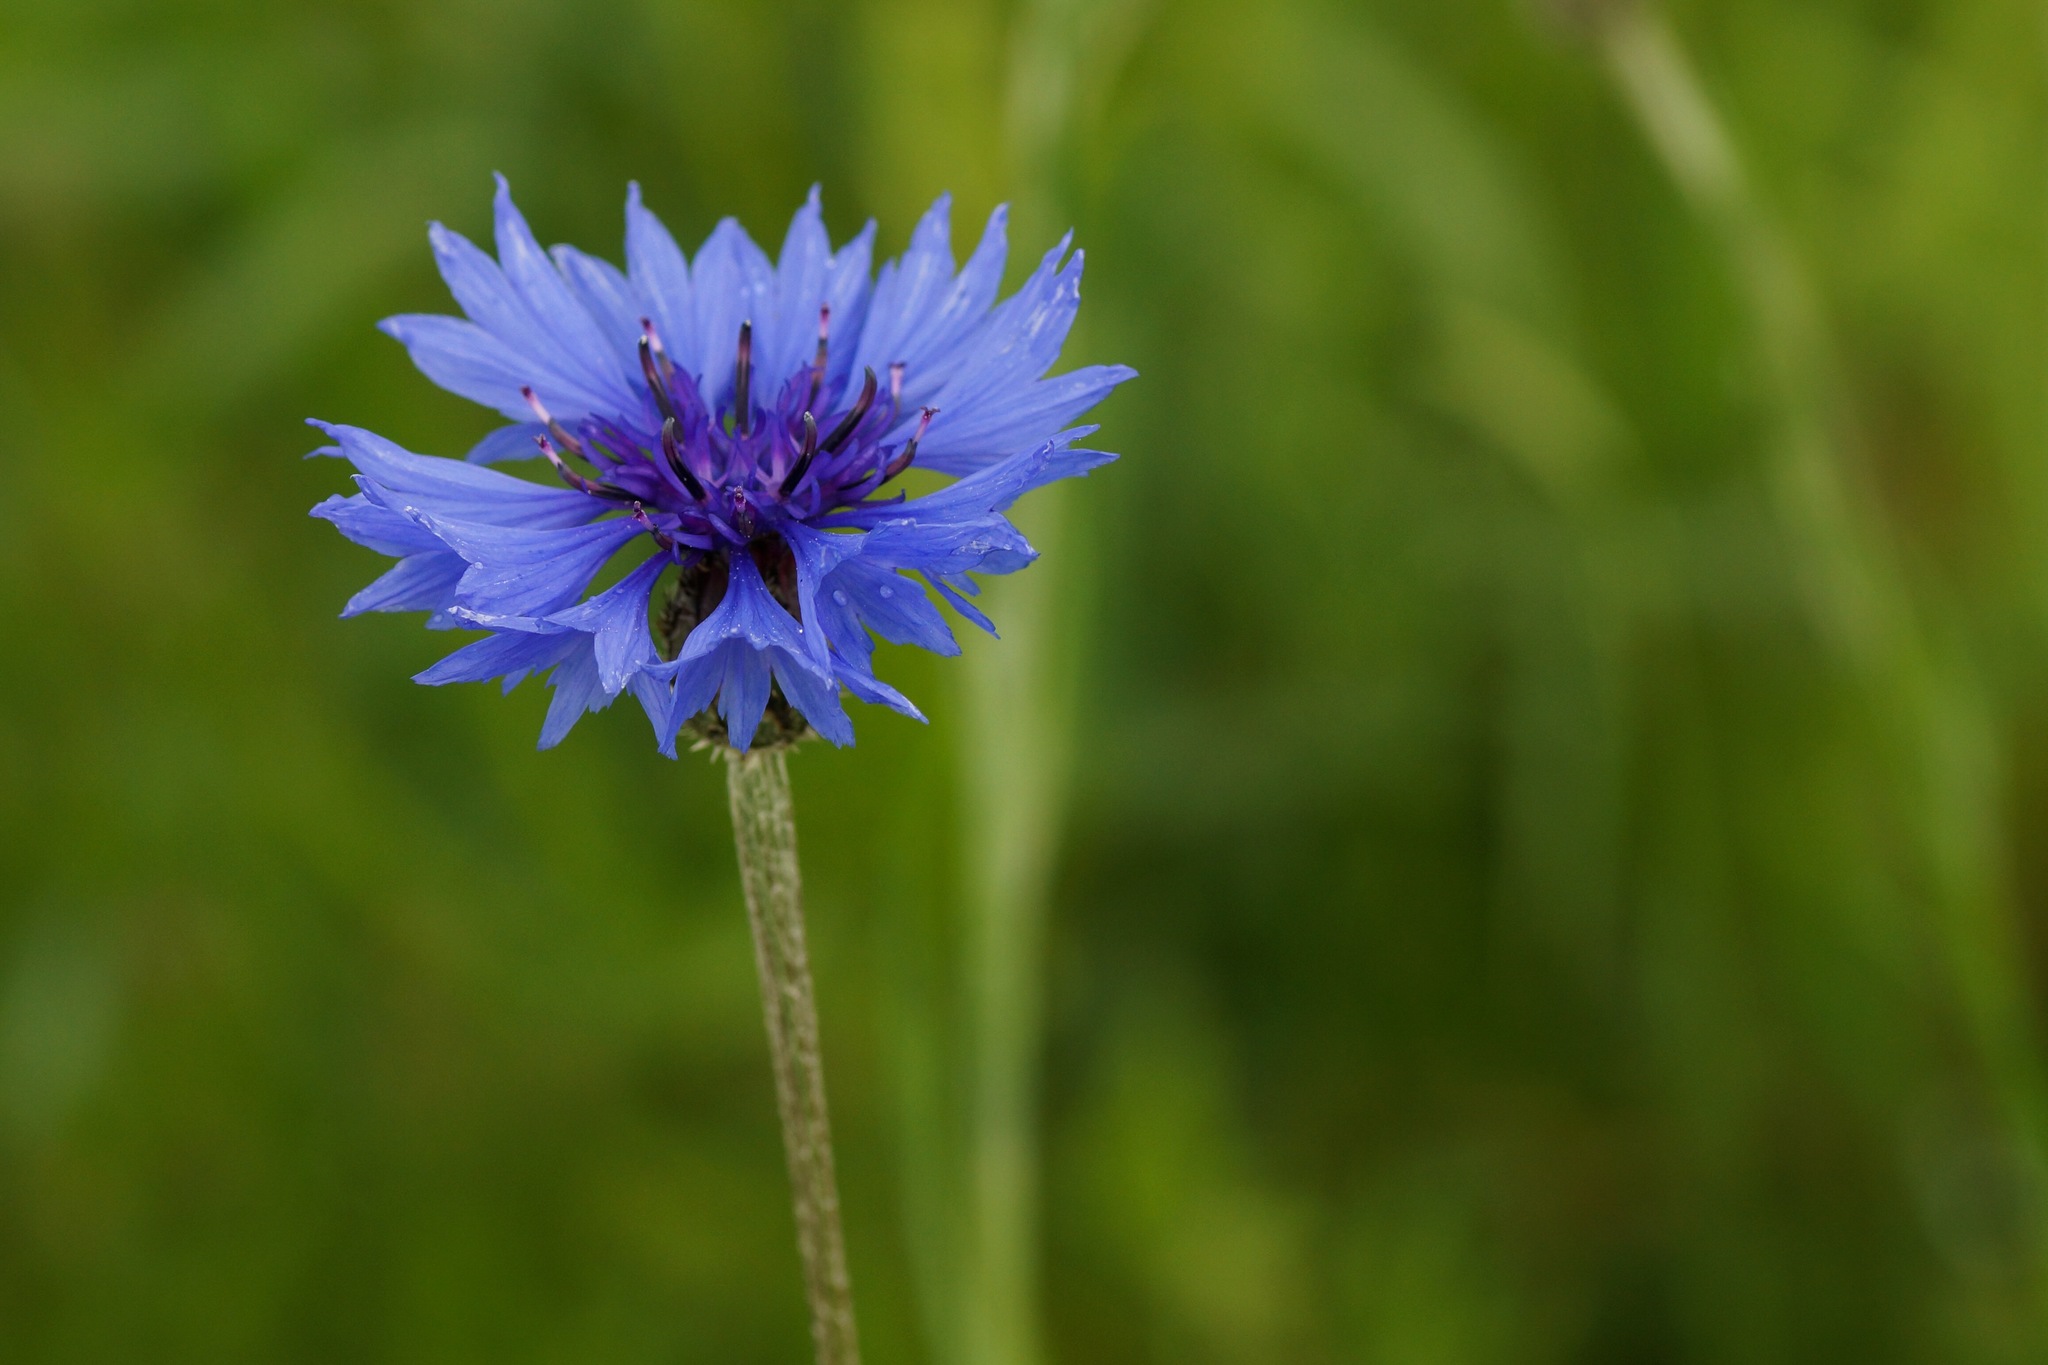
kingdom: Plantae
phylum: Tracheophyta
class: Magnoliopsida
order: Asterales
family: Asteraceae
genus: Centaurea
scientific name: Centaurea cyanus
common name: Cornflower
